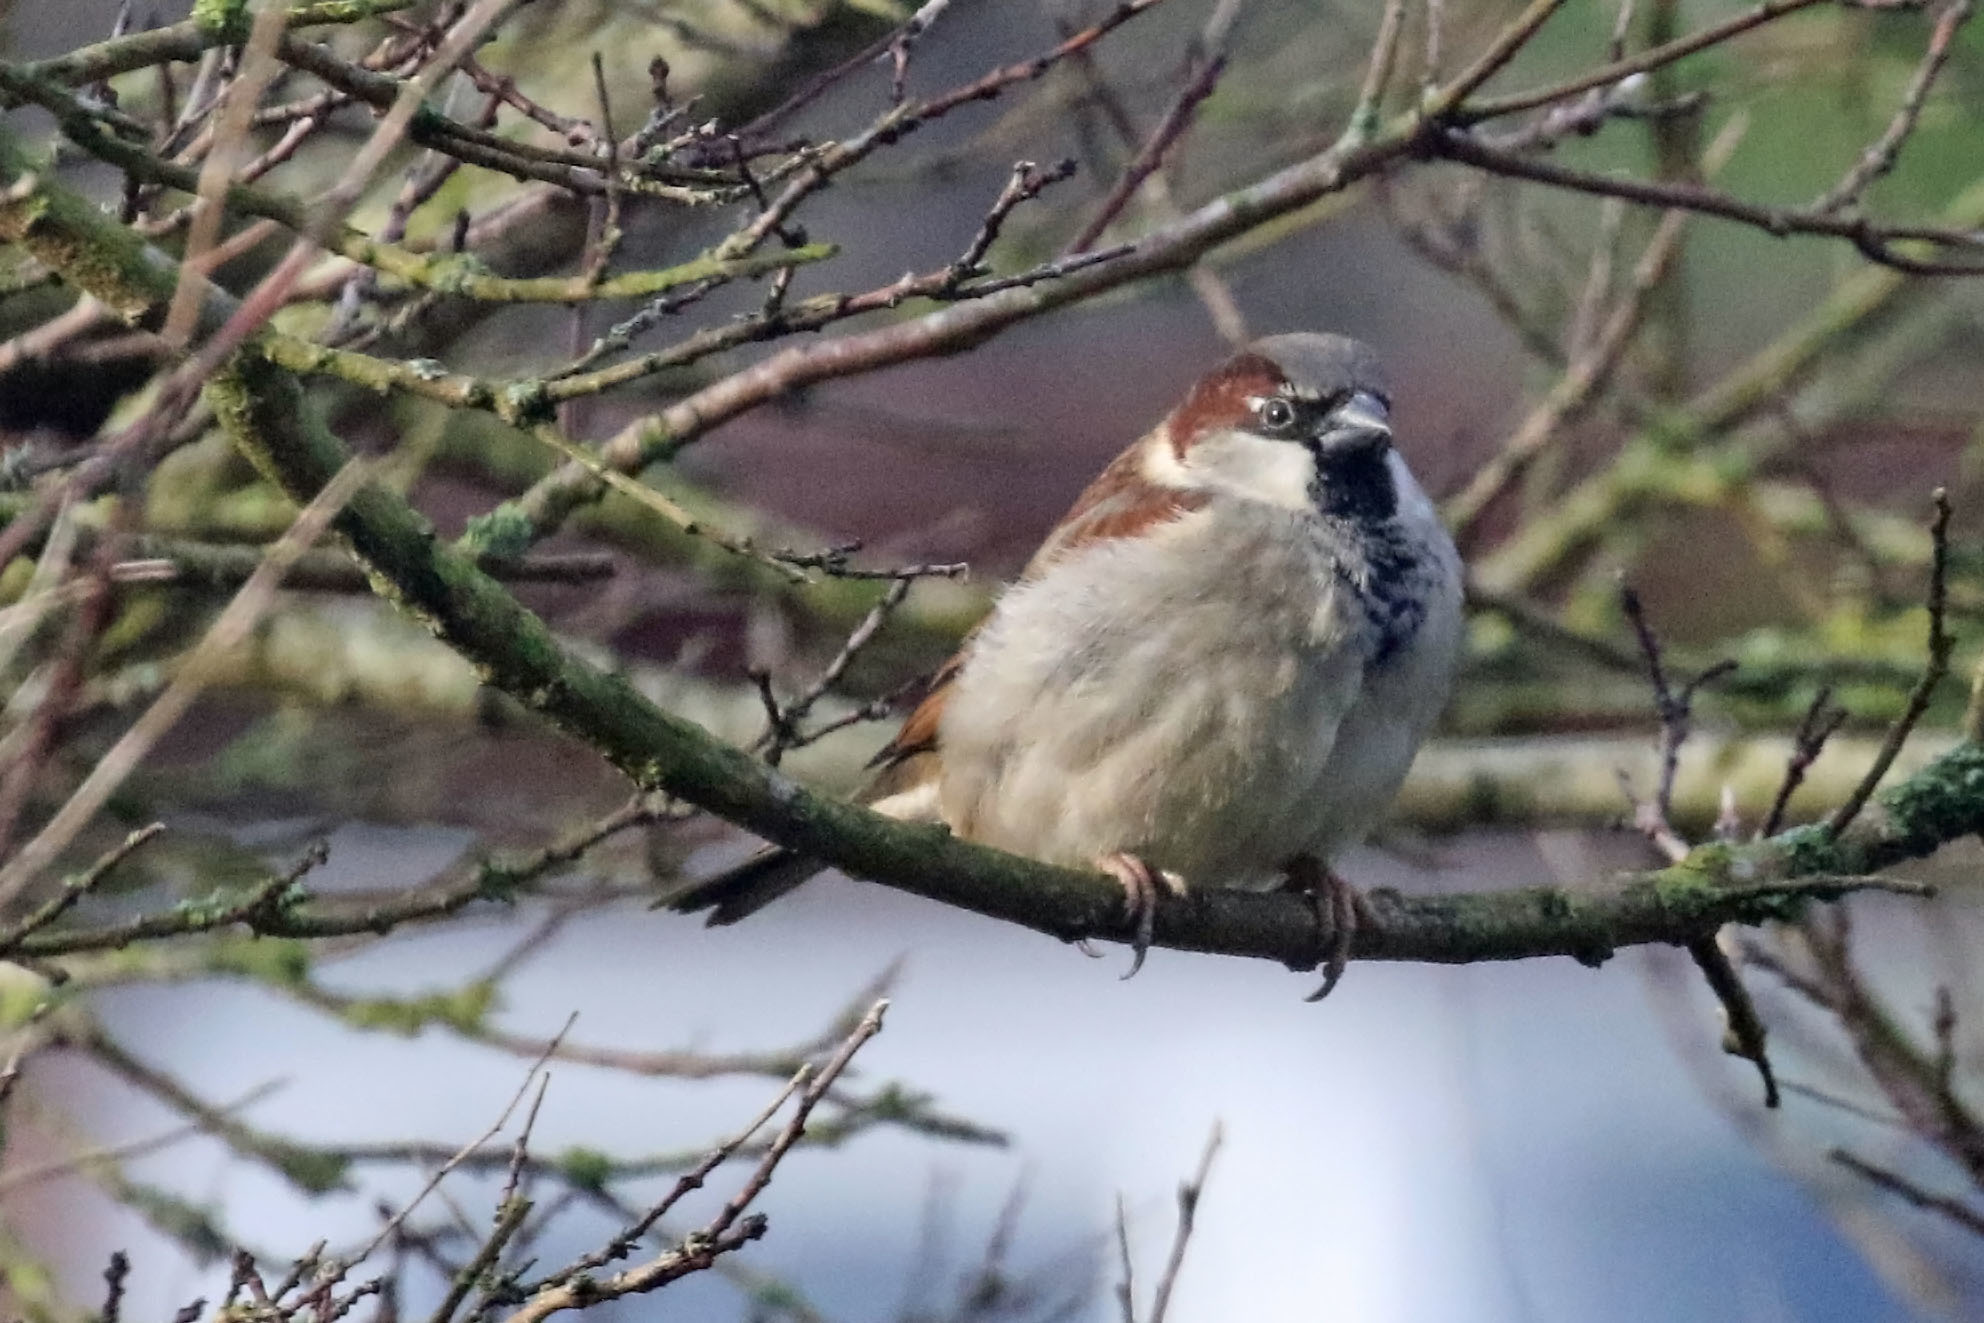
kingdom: Animalia
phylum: Chordata
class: Aves
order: Passeriformes
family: Passeridae
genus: Passer
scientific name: Passer domesticus
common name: House sparrow
